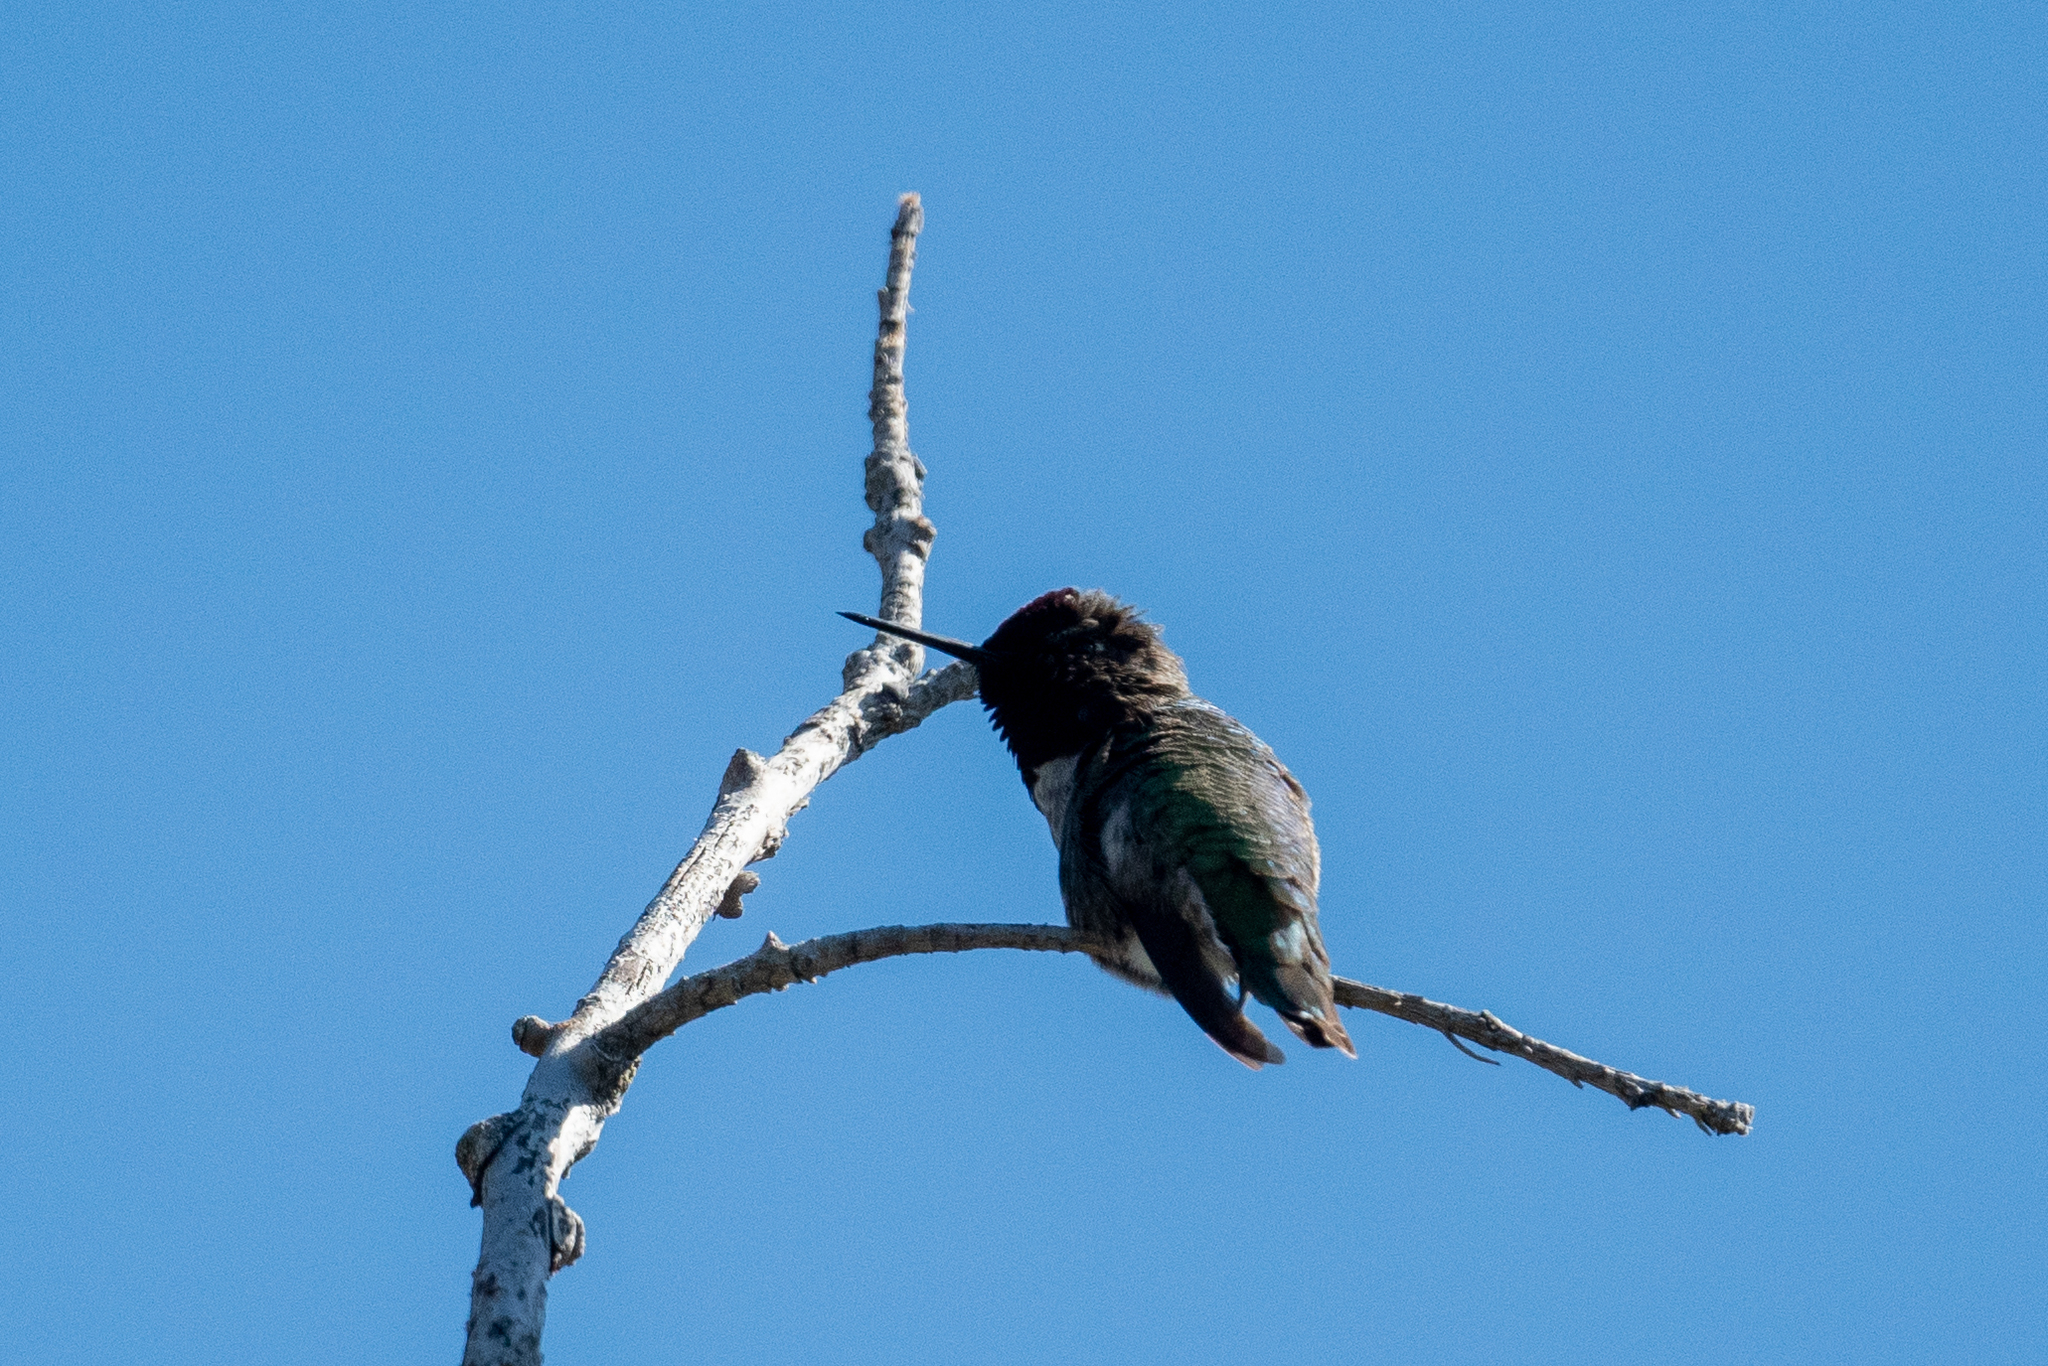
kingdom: Animalia
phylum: Chordata
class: Aves
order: Apodiformes
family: Trochilidae
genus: Calypte
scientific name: Calypte anna
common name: Anna's hummingbird
